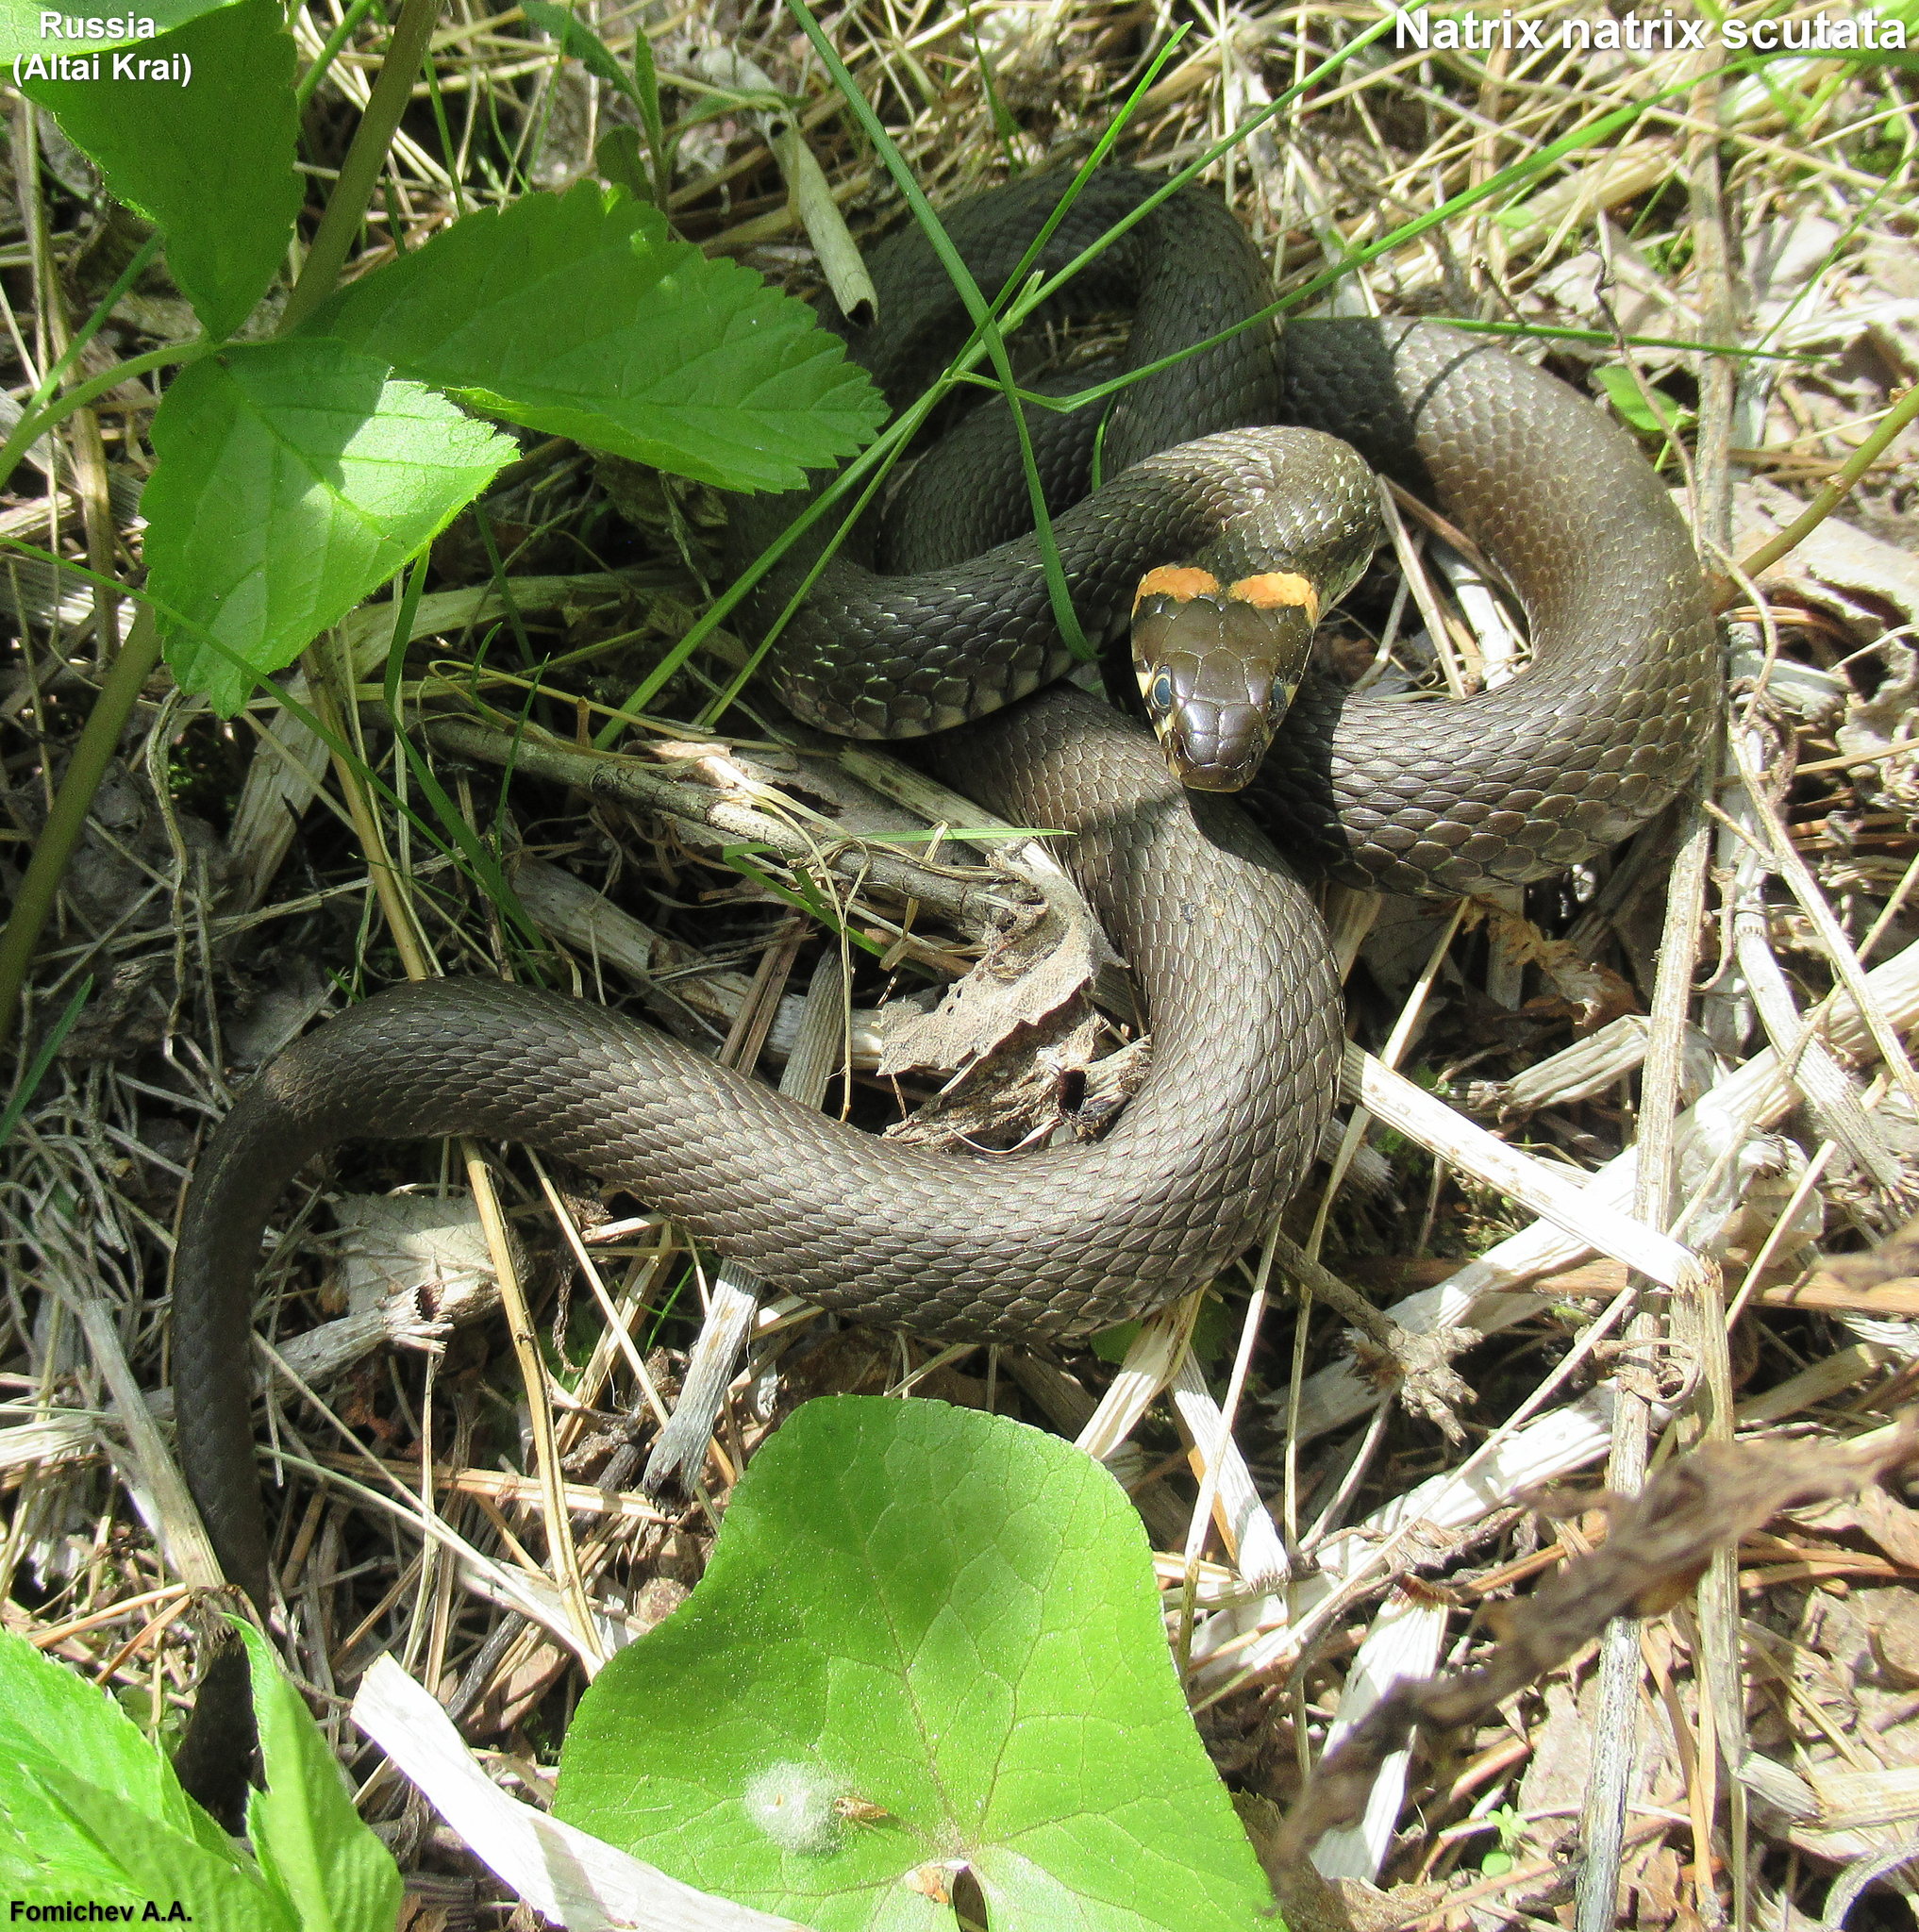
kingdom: Animalia
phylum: Chordata
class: Squamata
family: Colubridae
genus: Natrix
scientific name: Natrix natrix
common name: Grass snake
